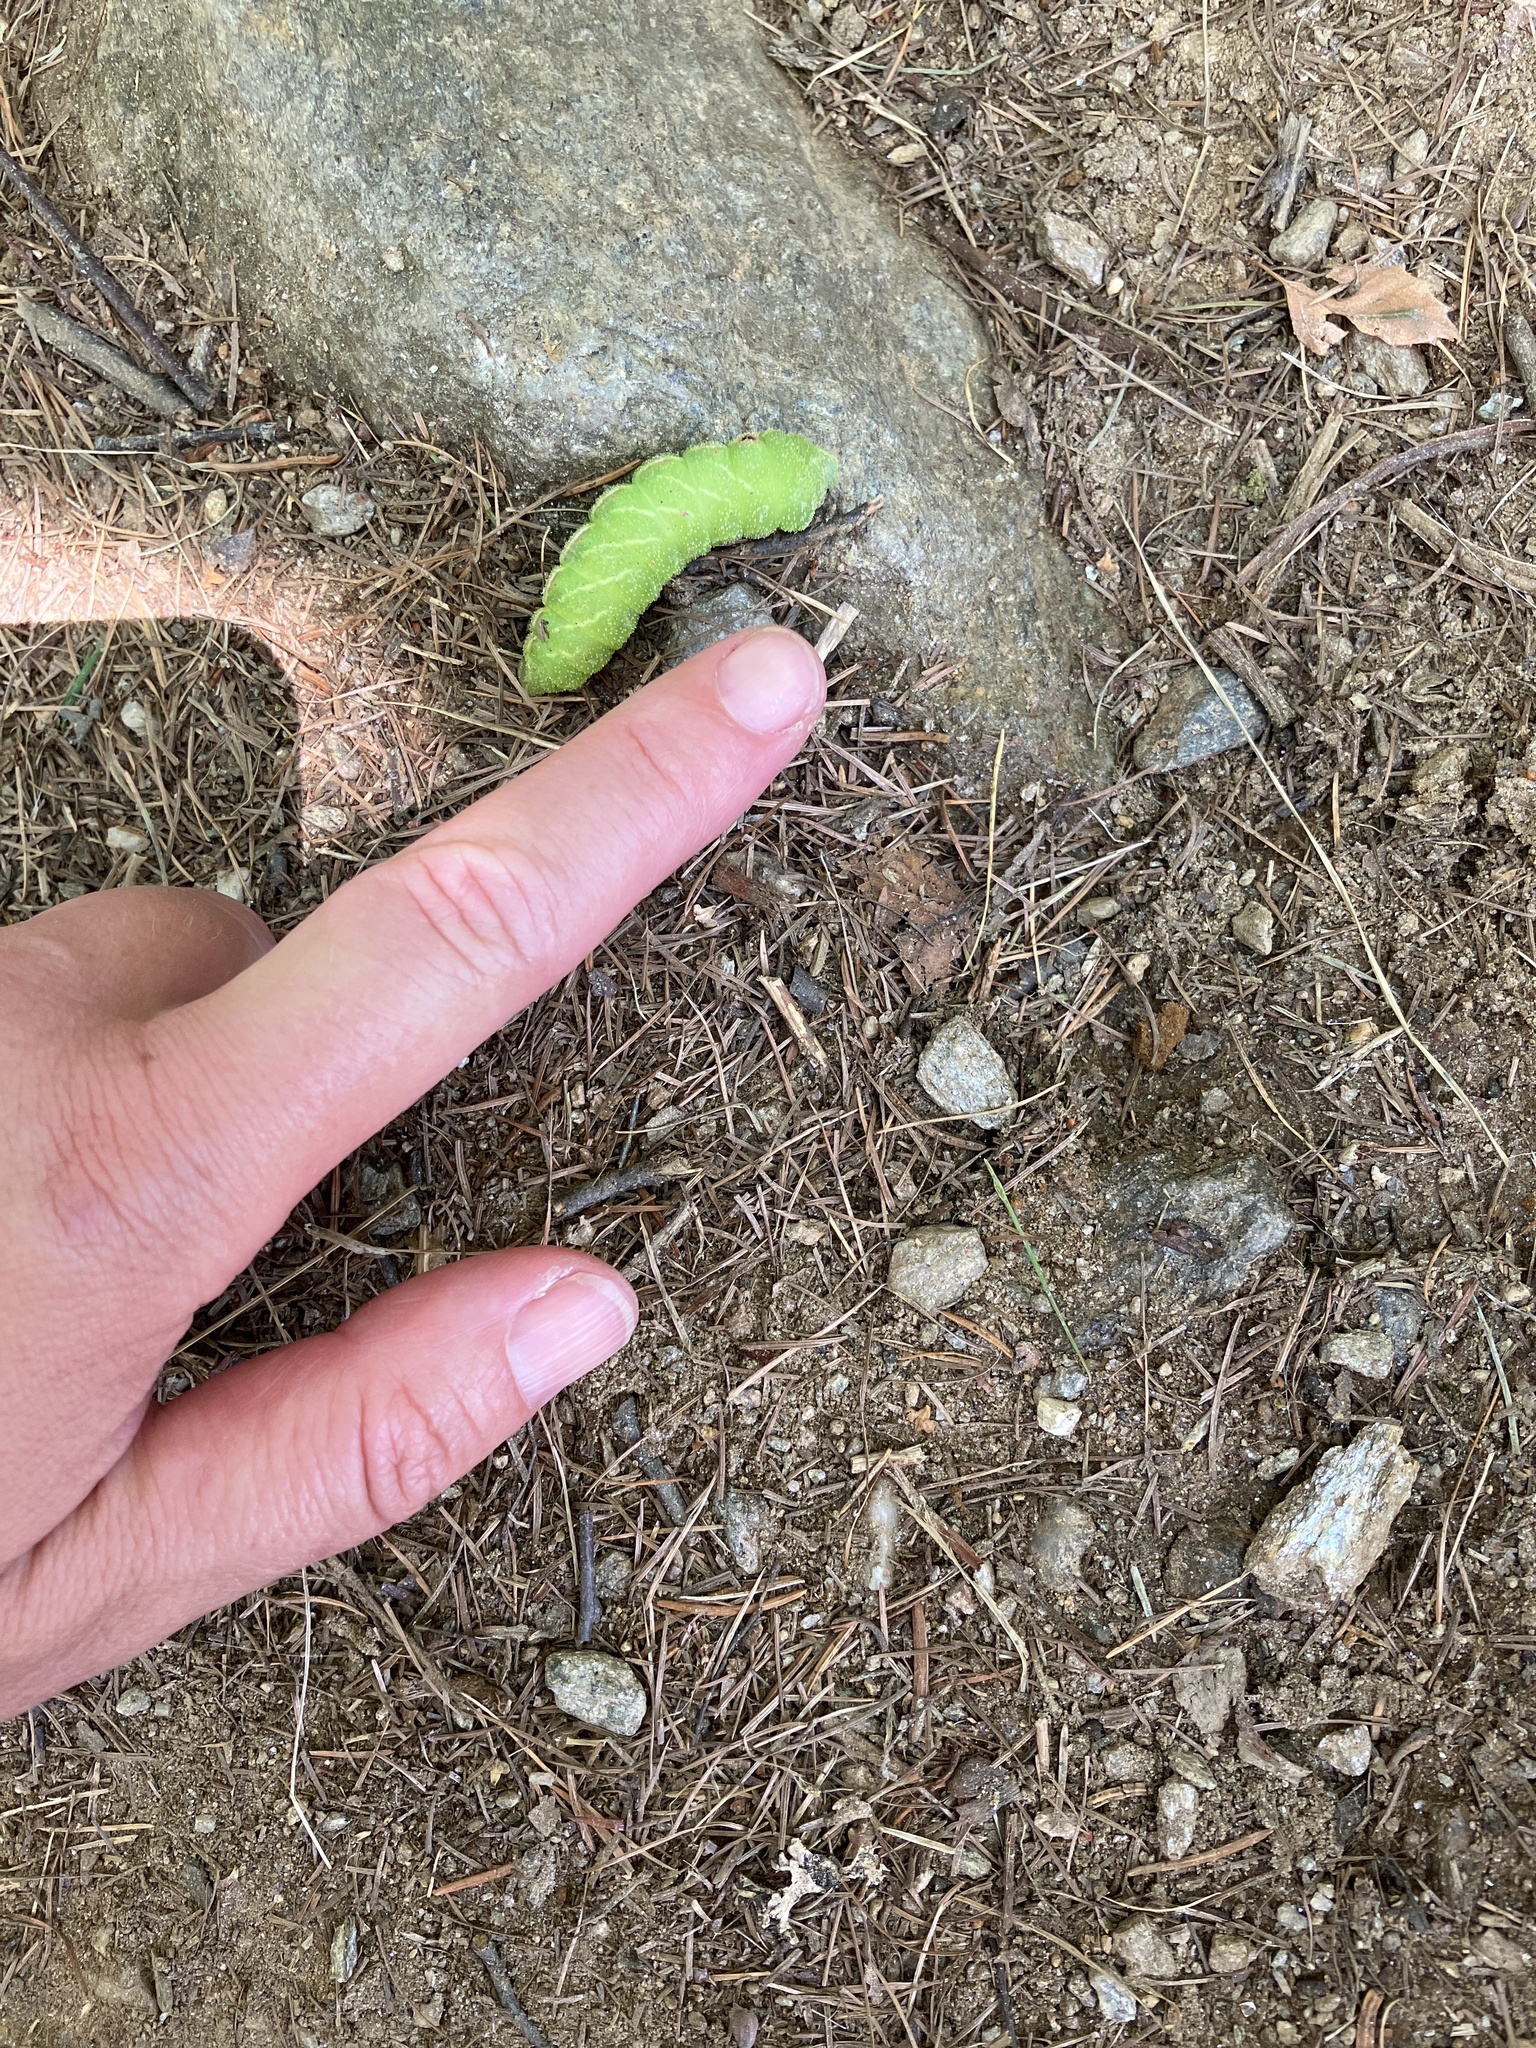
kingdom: Animalia
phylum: Arthropoda
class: Insecta
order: Lepidoptera
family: Saturniidae
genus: Aglia
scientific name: Aglia tau
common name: Tau emperor
